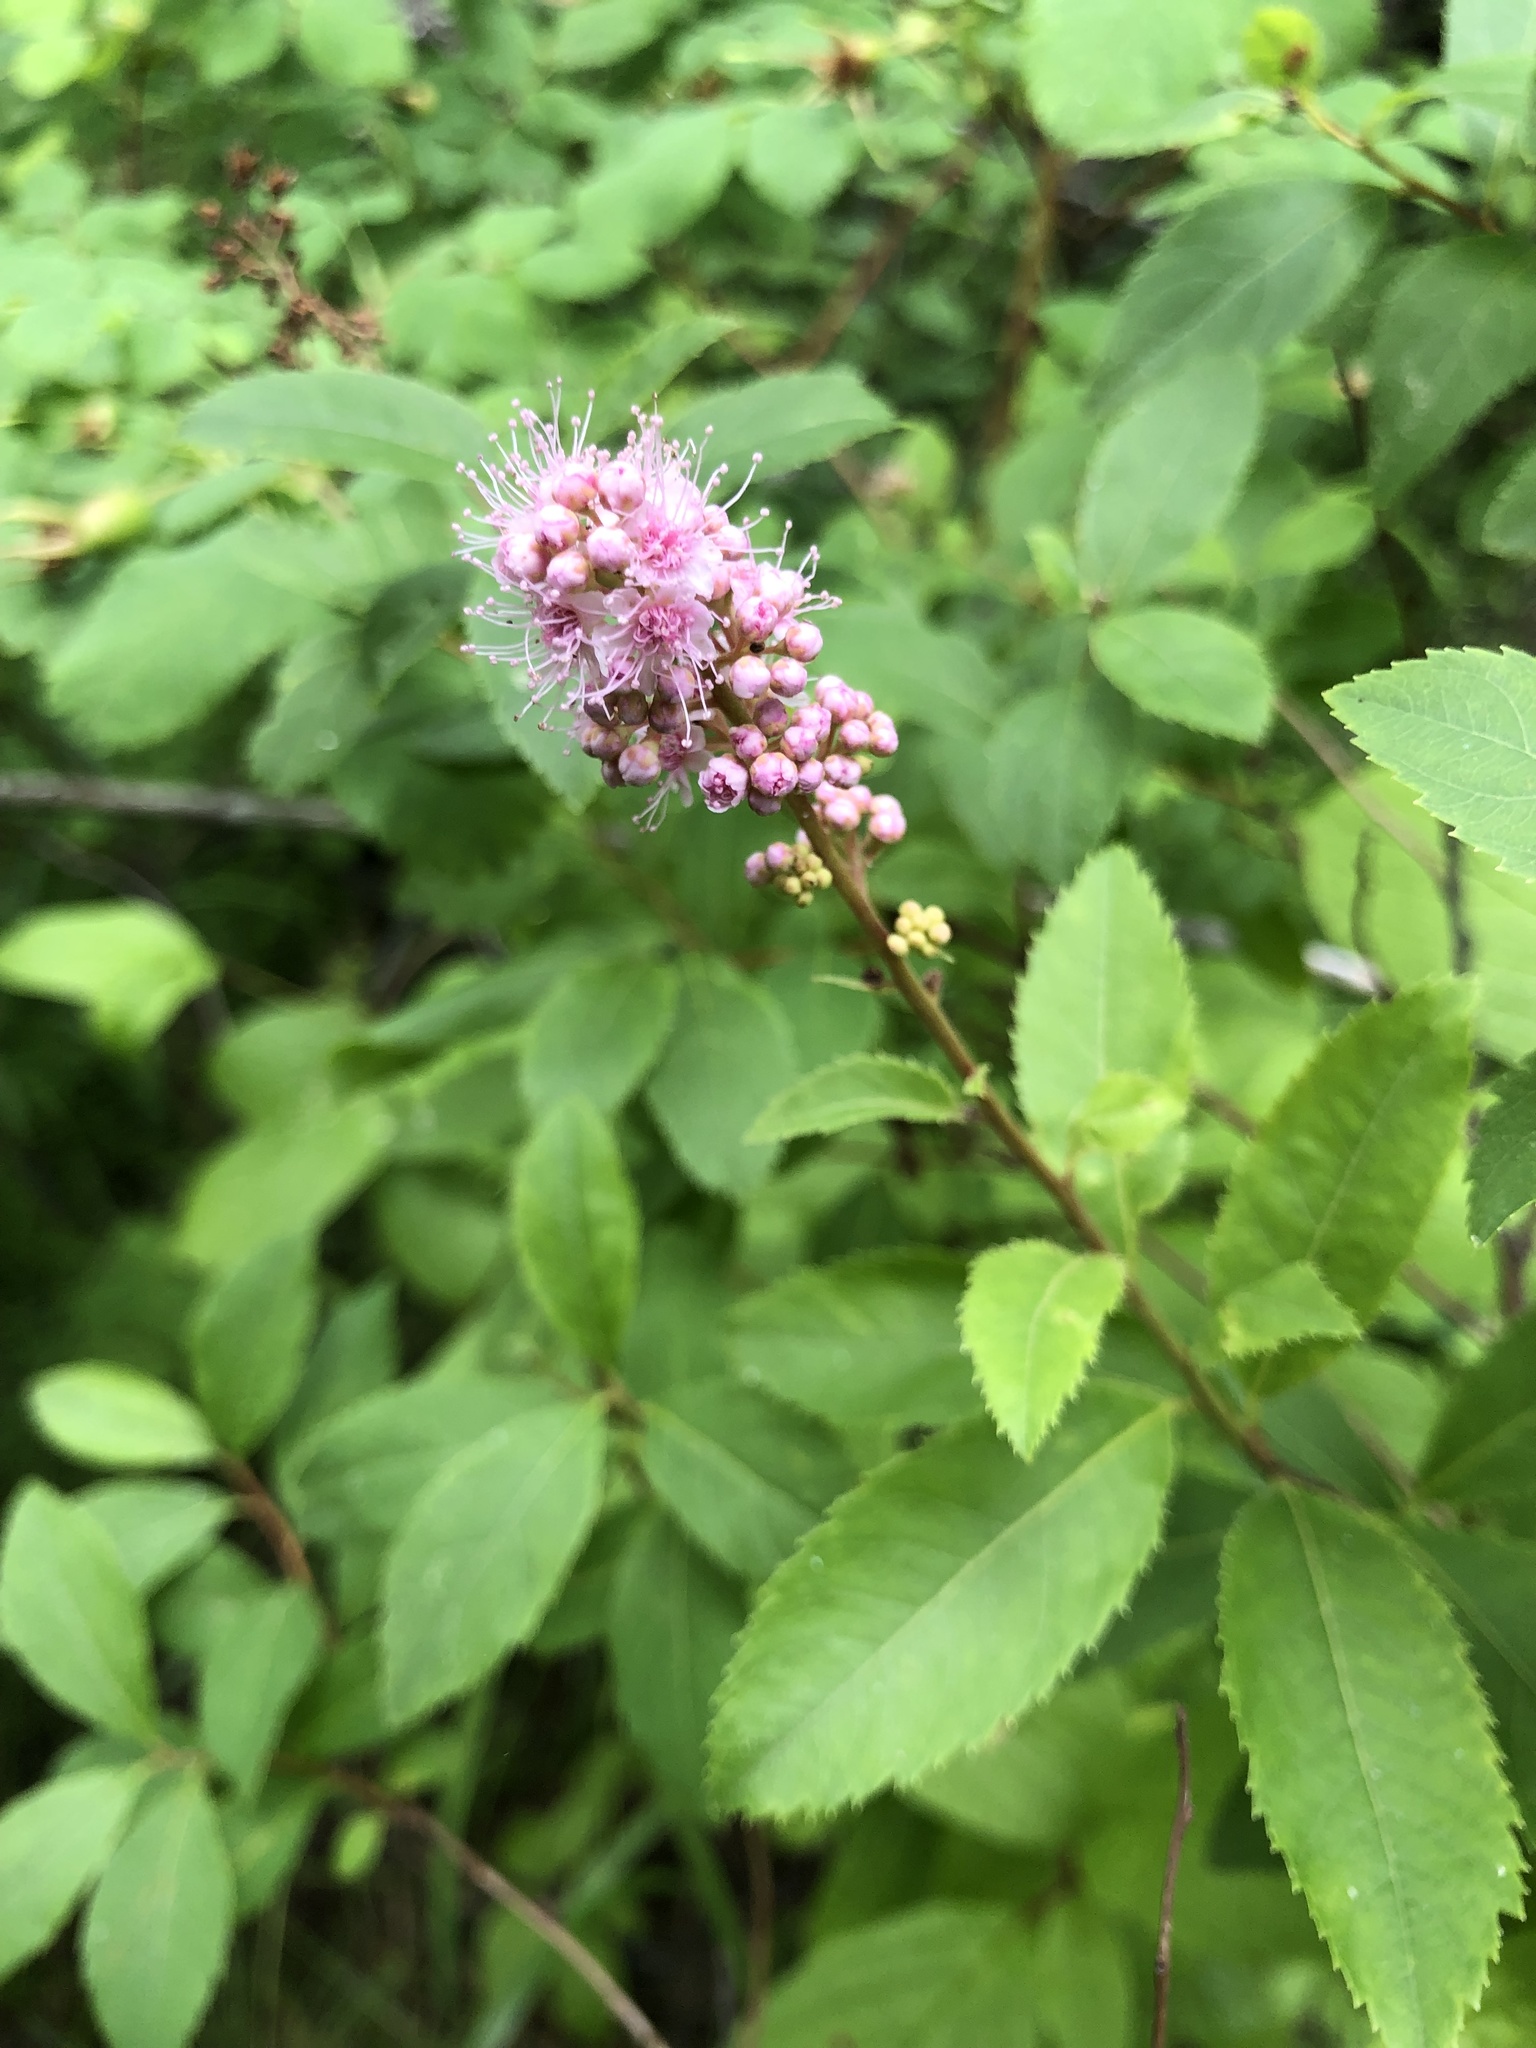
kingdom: Plantae
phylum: Tracheophyta
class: Magnoliopsida
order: Rosales
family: Rosaceae
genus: Spiraea
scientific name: Spiraea salicifolia
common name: Bridewort
